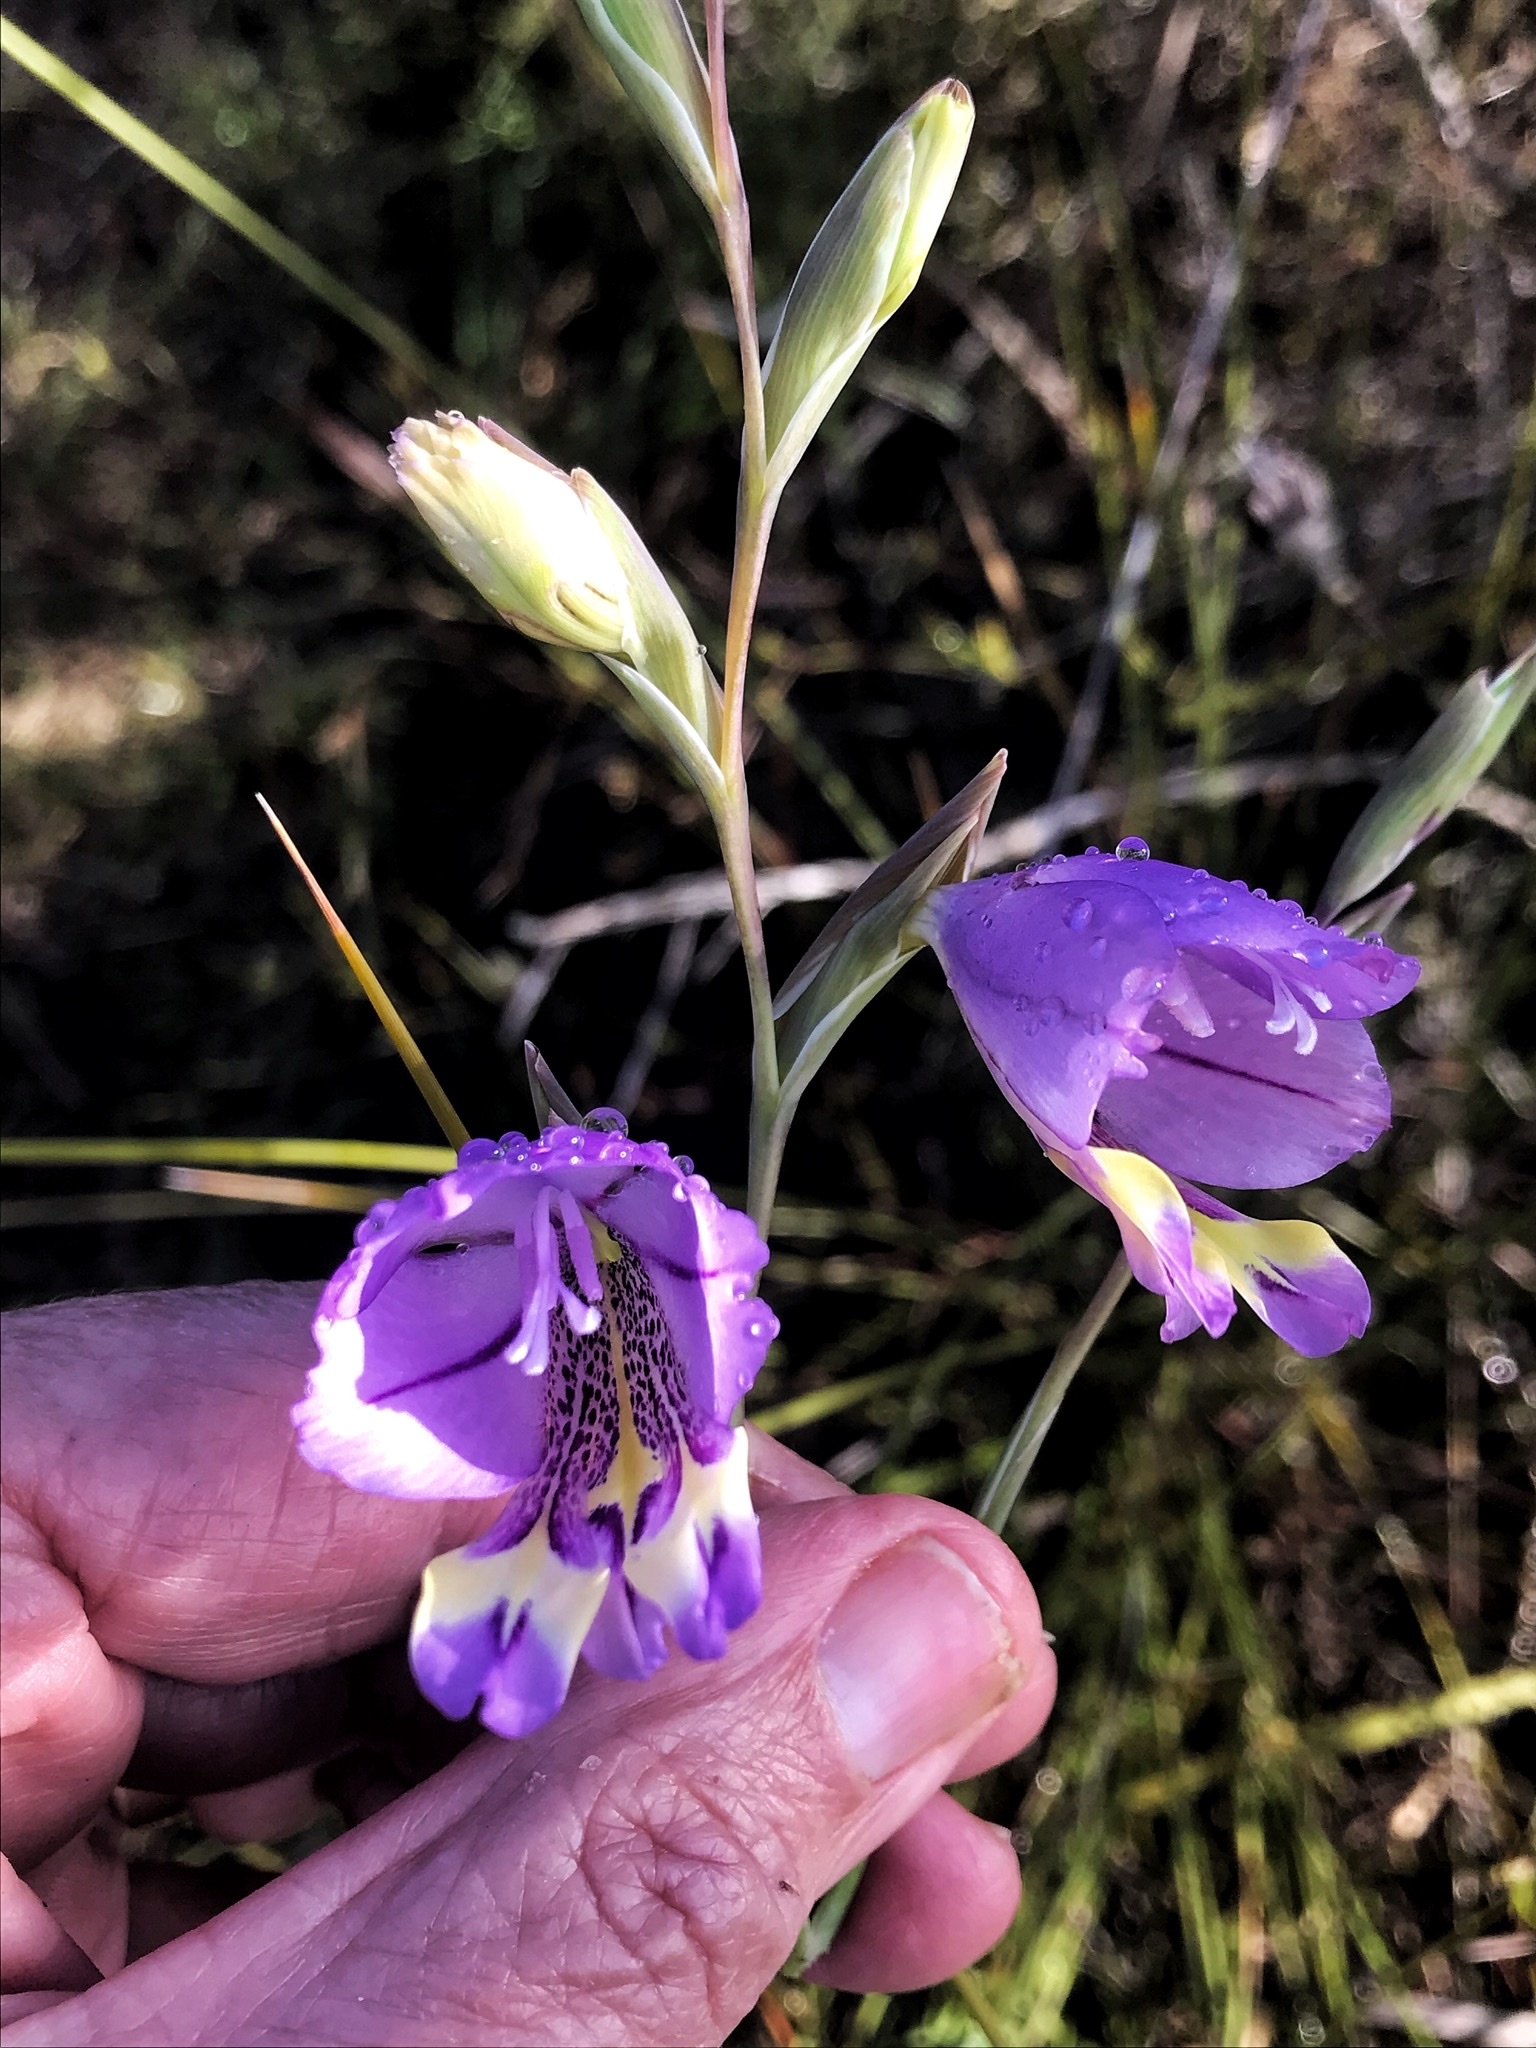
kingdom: Plantae
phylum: Tracheophyta
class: Liliopsida
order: Asparagales
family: Iridaceae
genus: Gladiolus
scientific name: Gladiolus rogersii
